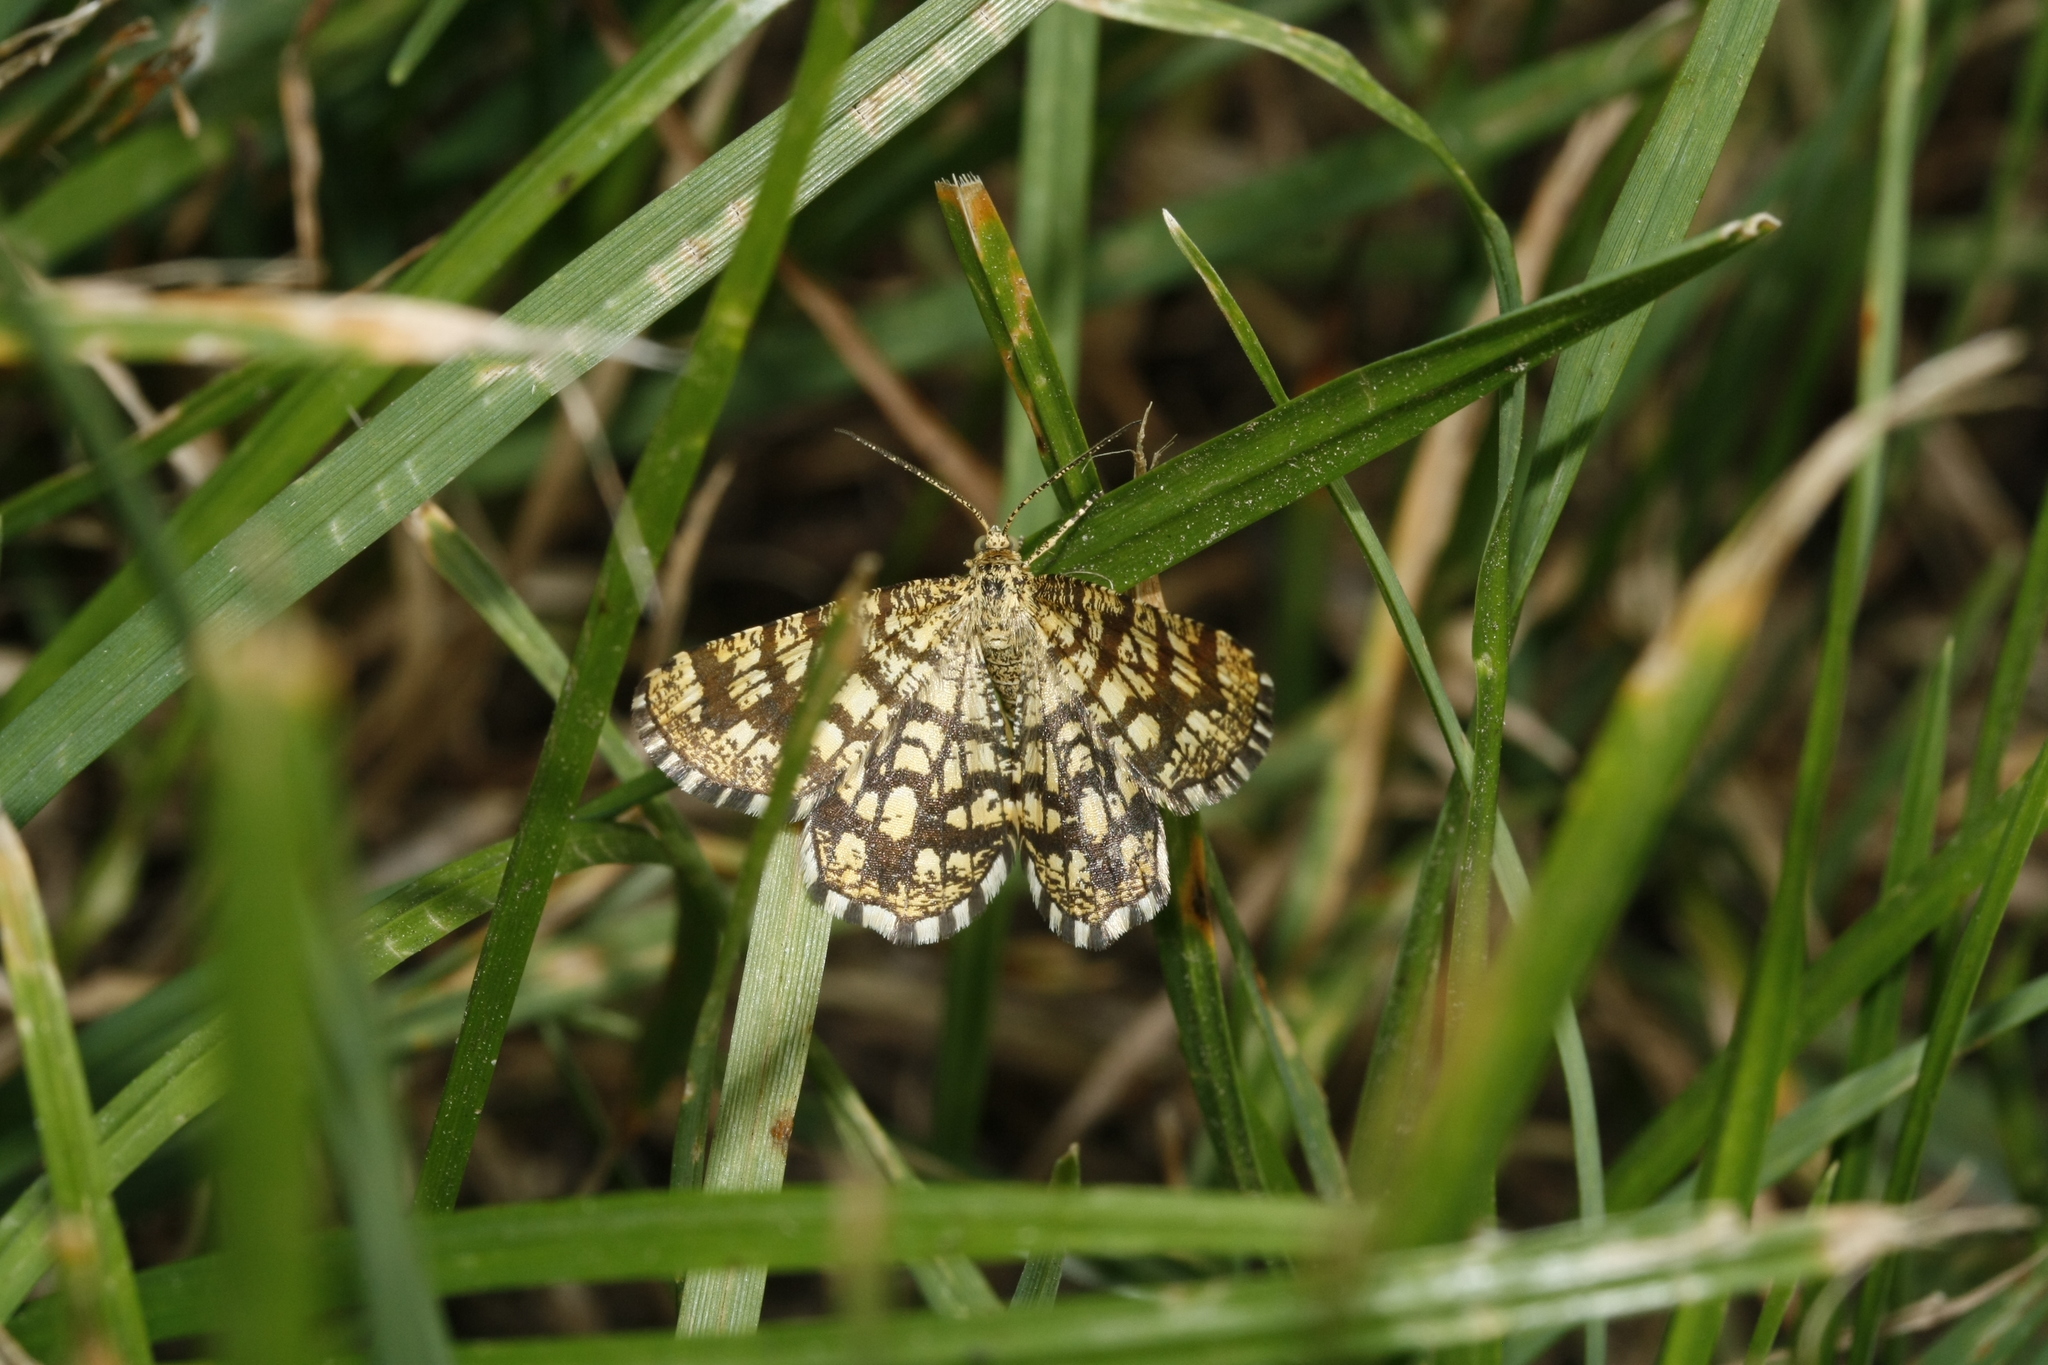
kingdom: Animalia
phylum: Arthropoda
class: Insecta
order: Lepidoptera
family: Geometridae
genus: Chiasmia
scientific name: Chiasmia clathrata
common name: Latticed heath
